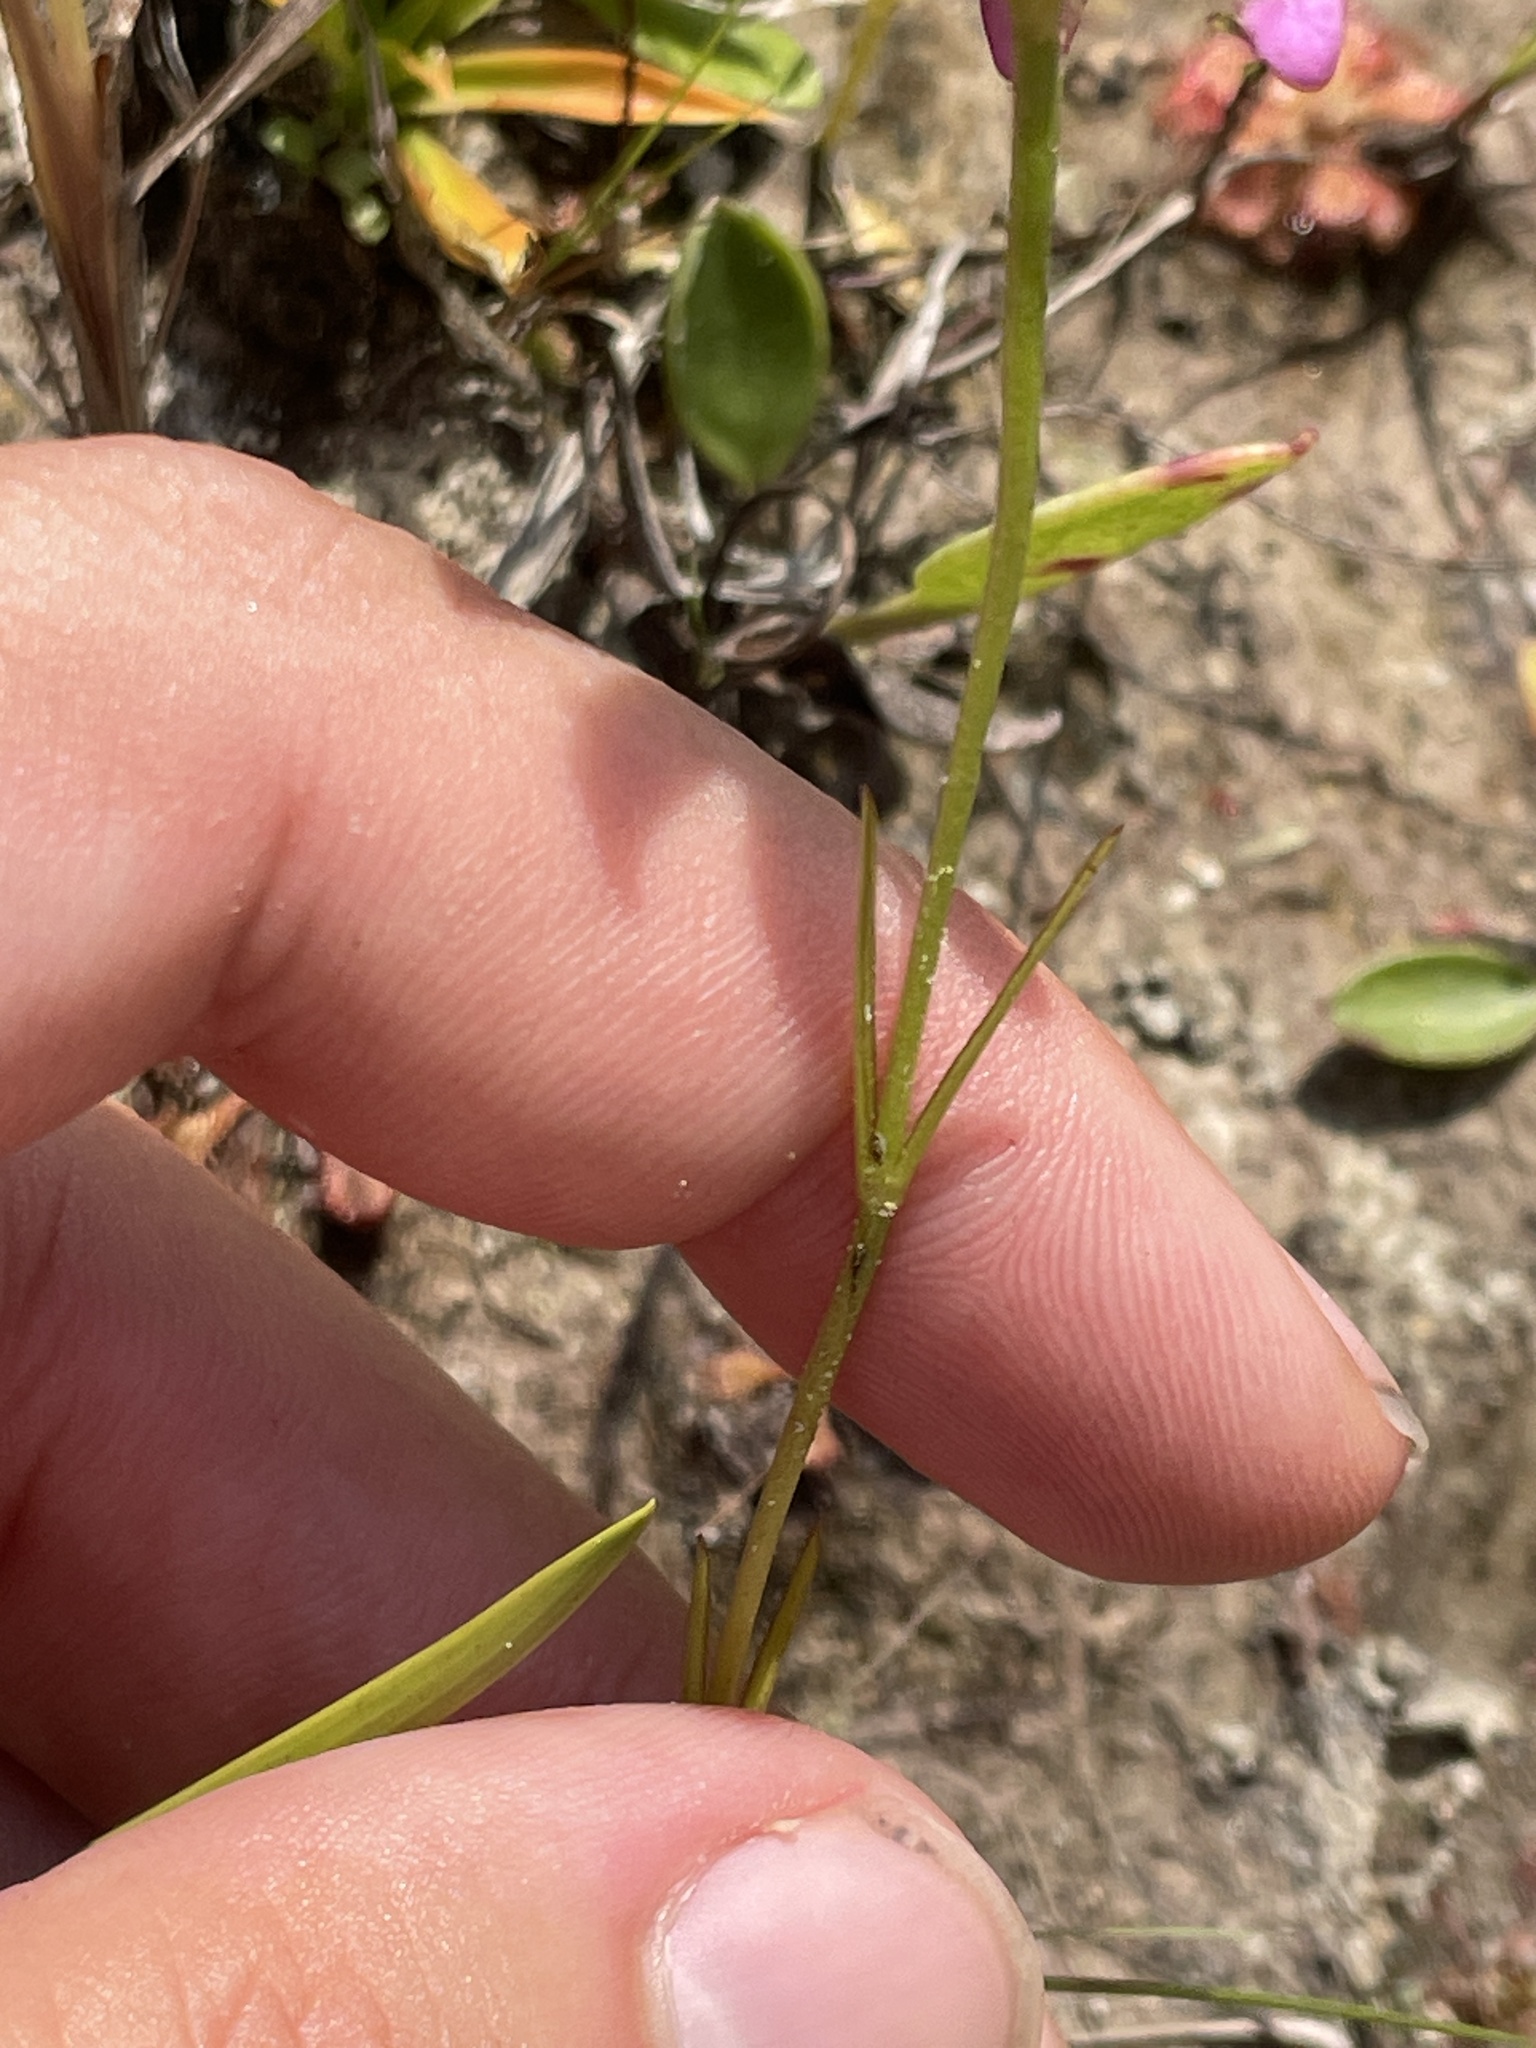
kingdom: Plantae
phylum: Tracheophyta
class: Magnoliopsida
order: Gentianales
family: Gentianaceae
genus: Sabatia
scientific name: Sabatia gentianoides
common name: Pinewoods rose-gentian
